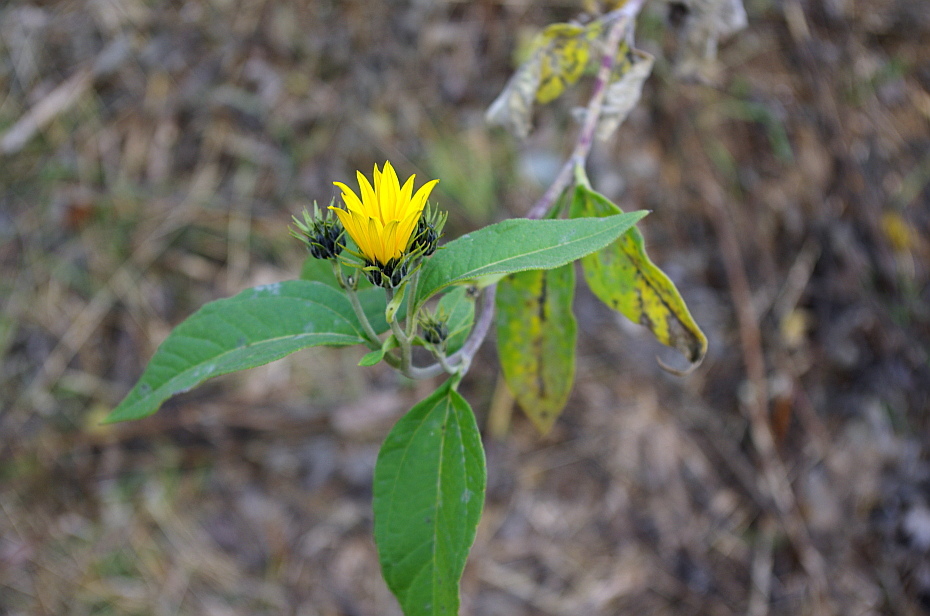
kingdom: Plantae
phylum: Tracheophyta
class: Magnoliopsida
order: Asterales
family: Asteraceae
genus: Helianthus
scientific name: Helianthus tuberosus
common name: Jerusalem artichoke
